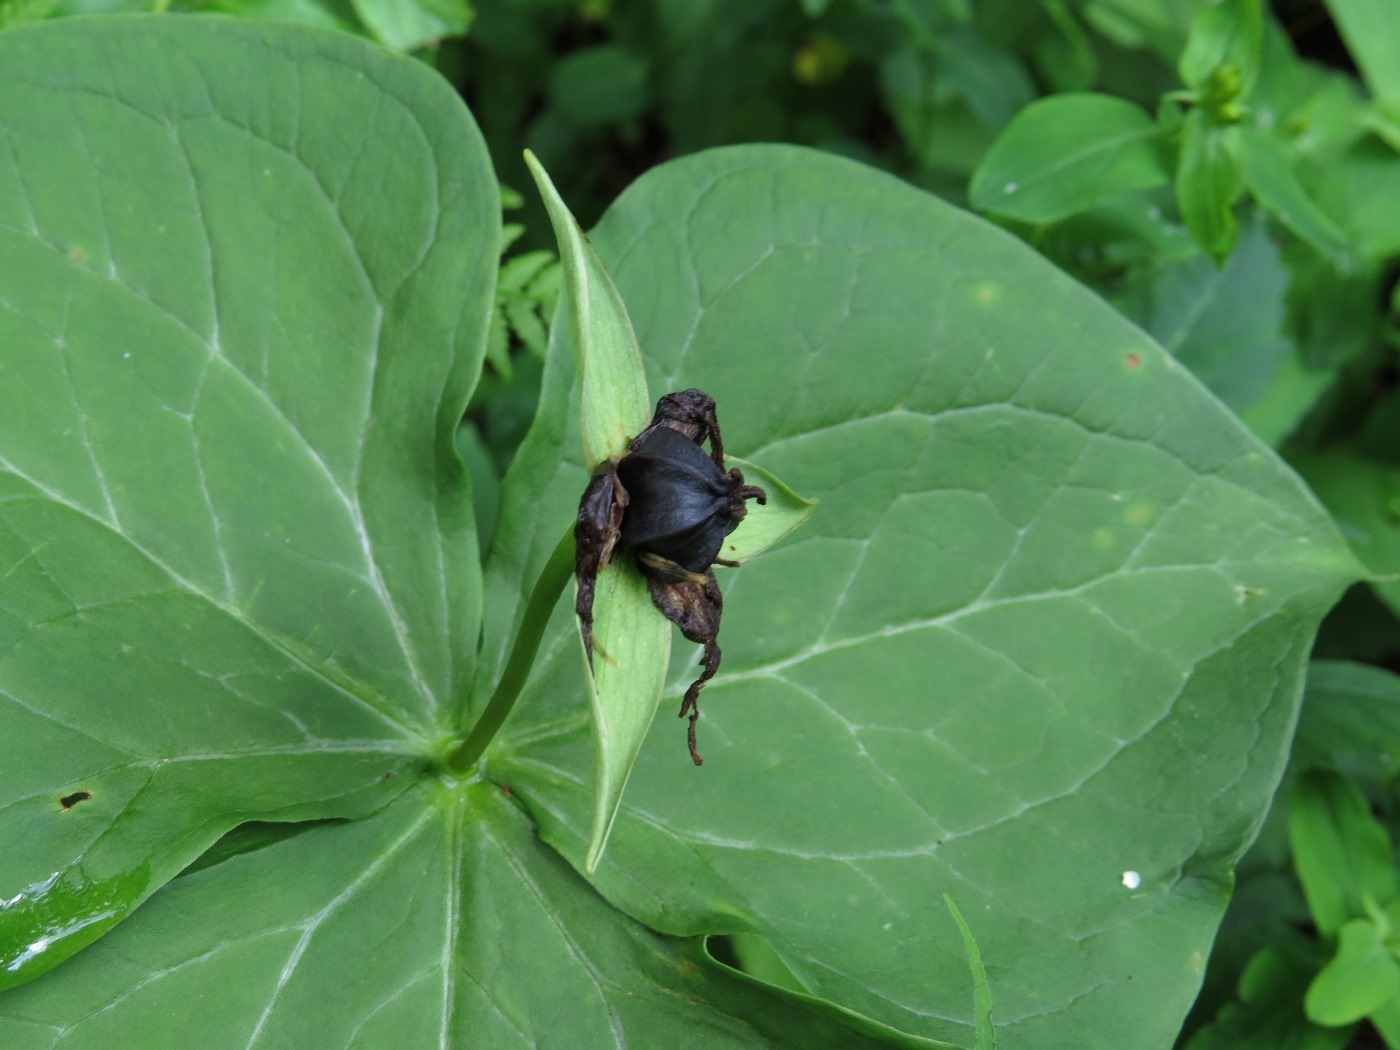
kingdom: Plantae
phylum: Tracheophyta
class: Liliopsida
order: Liliales
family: Melanthiaceae
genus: Trillium
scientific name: Trillium erectum
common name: Purple trillium
